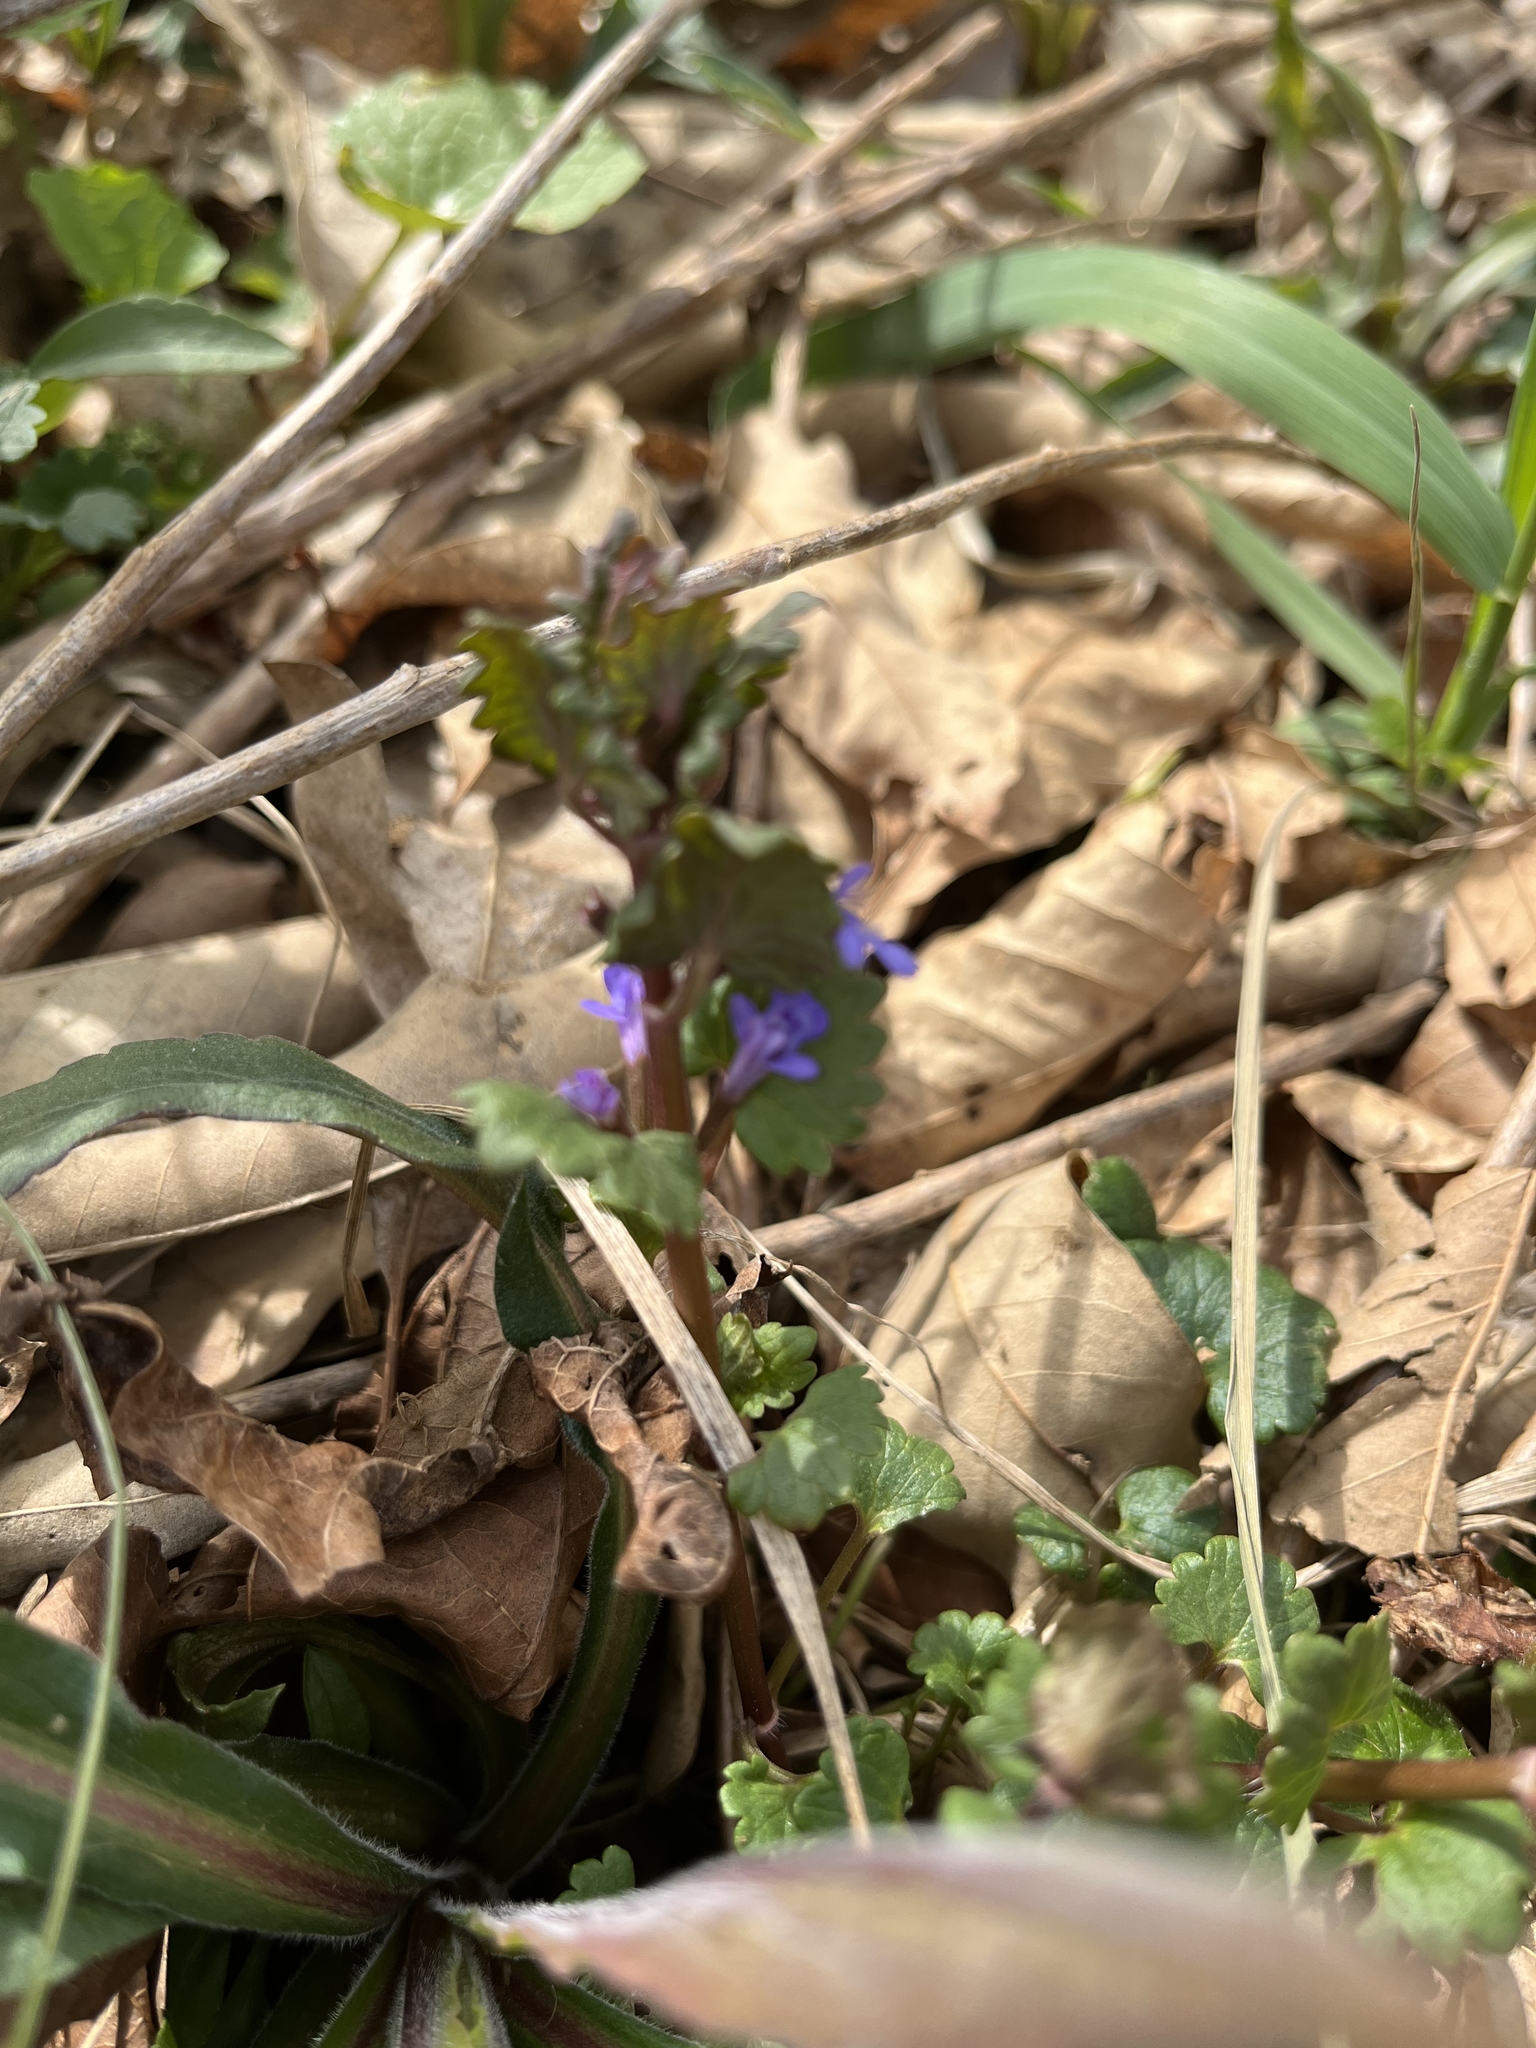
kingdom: Plantae
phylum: Tracheophyta
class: Magnoliopsida
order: Lamiales
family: Lamiaceae
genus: Glechoma
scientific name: Glechoma hederacea
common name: Ground ivy
